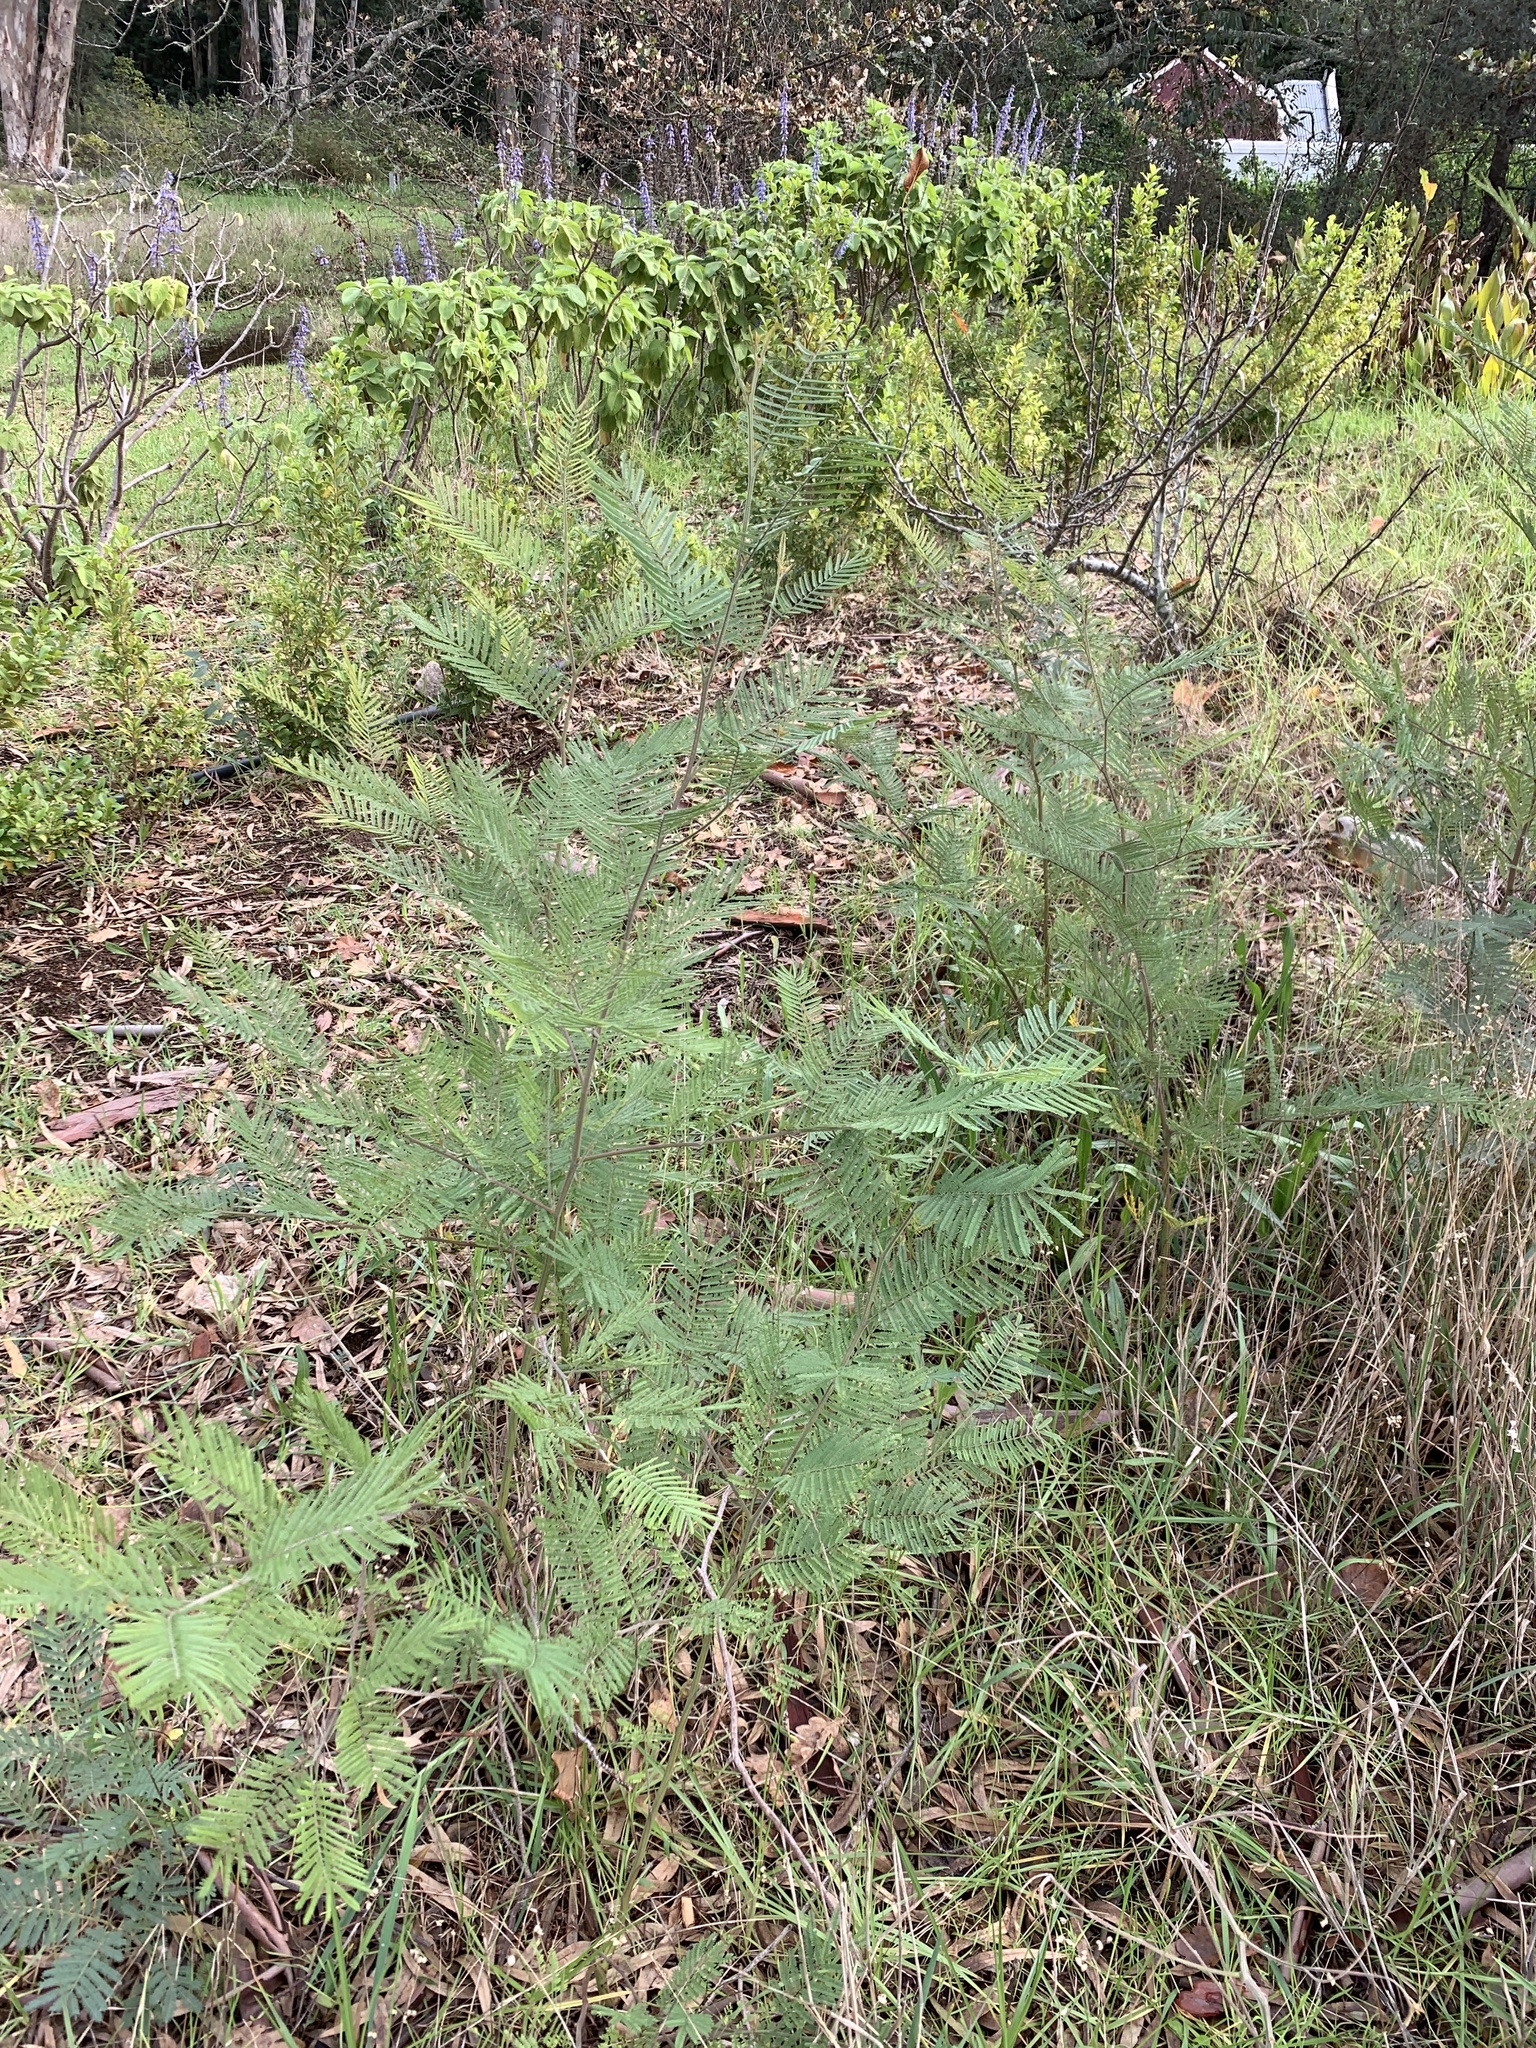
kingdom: Plantae
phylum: Tracheophyta
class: Magnoliopsida
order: Fabales
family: Fabaceae
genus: Acacia
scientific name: Acacia mearnsii
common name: Black wattle
